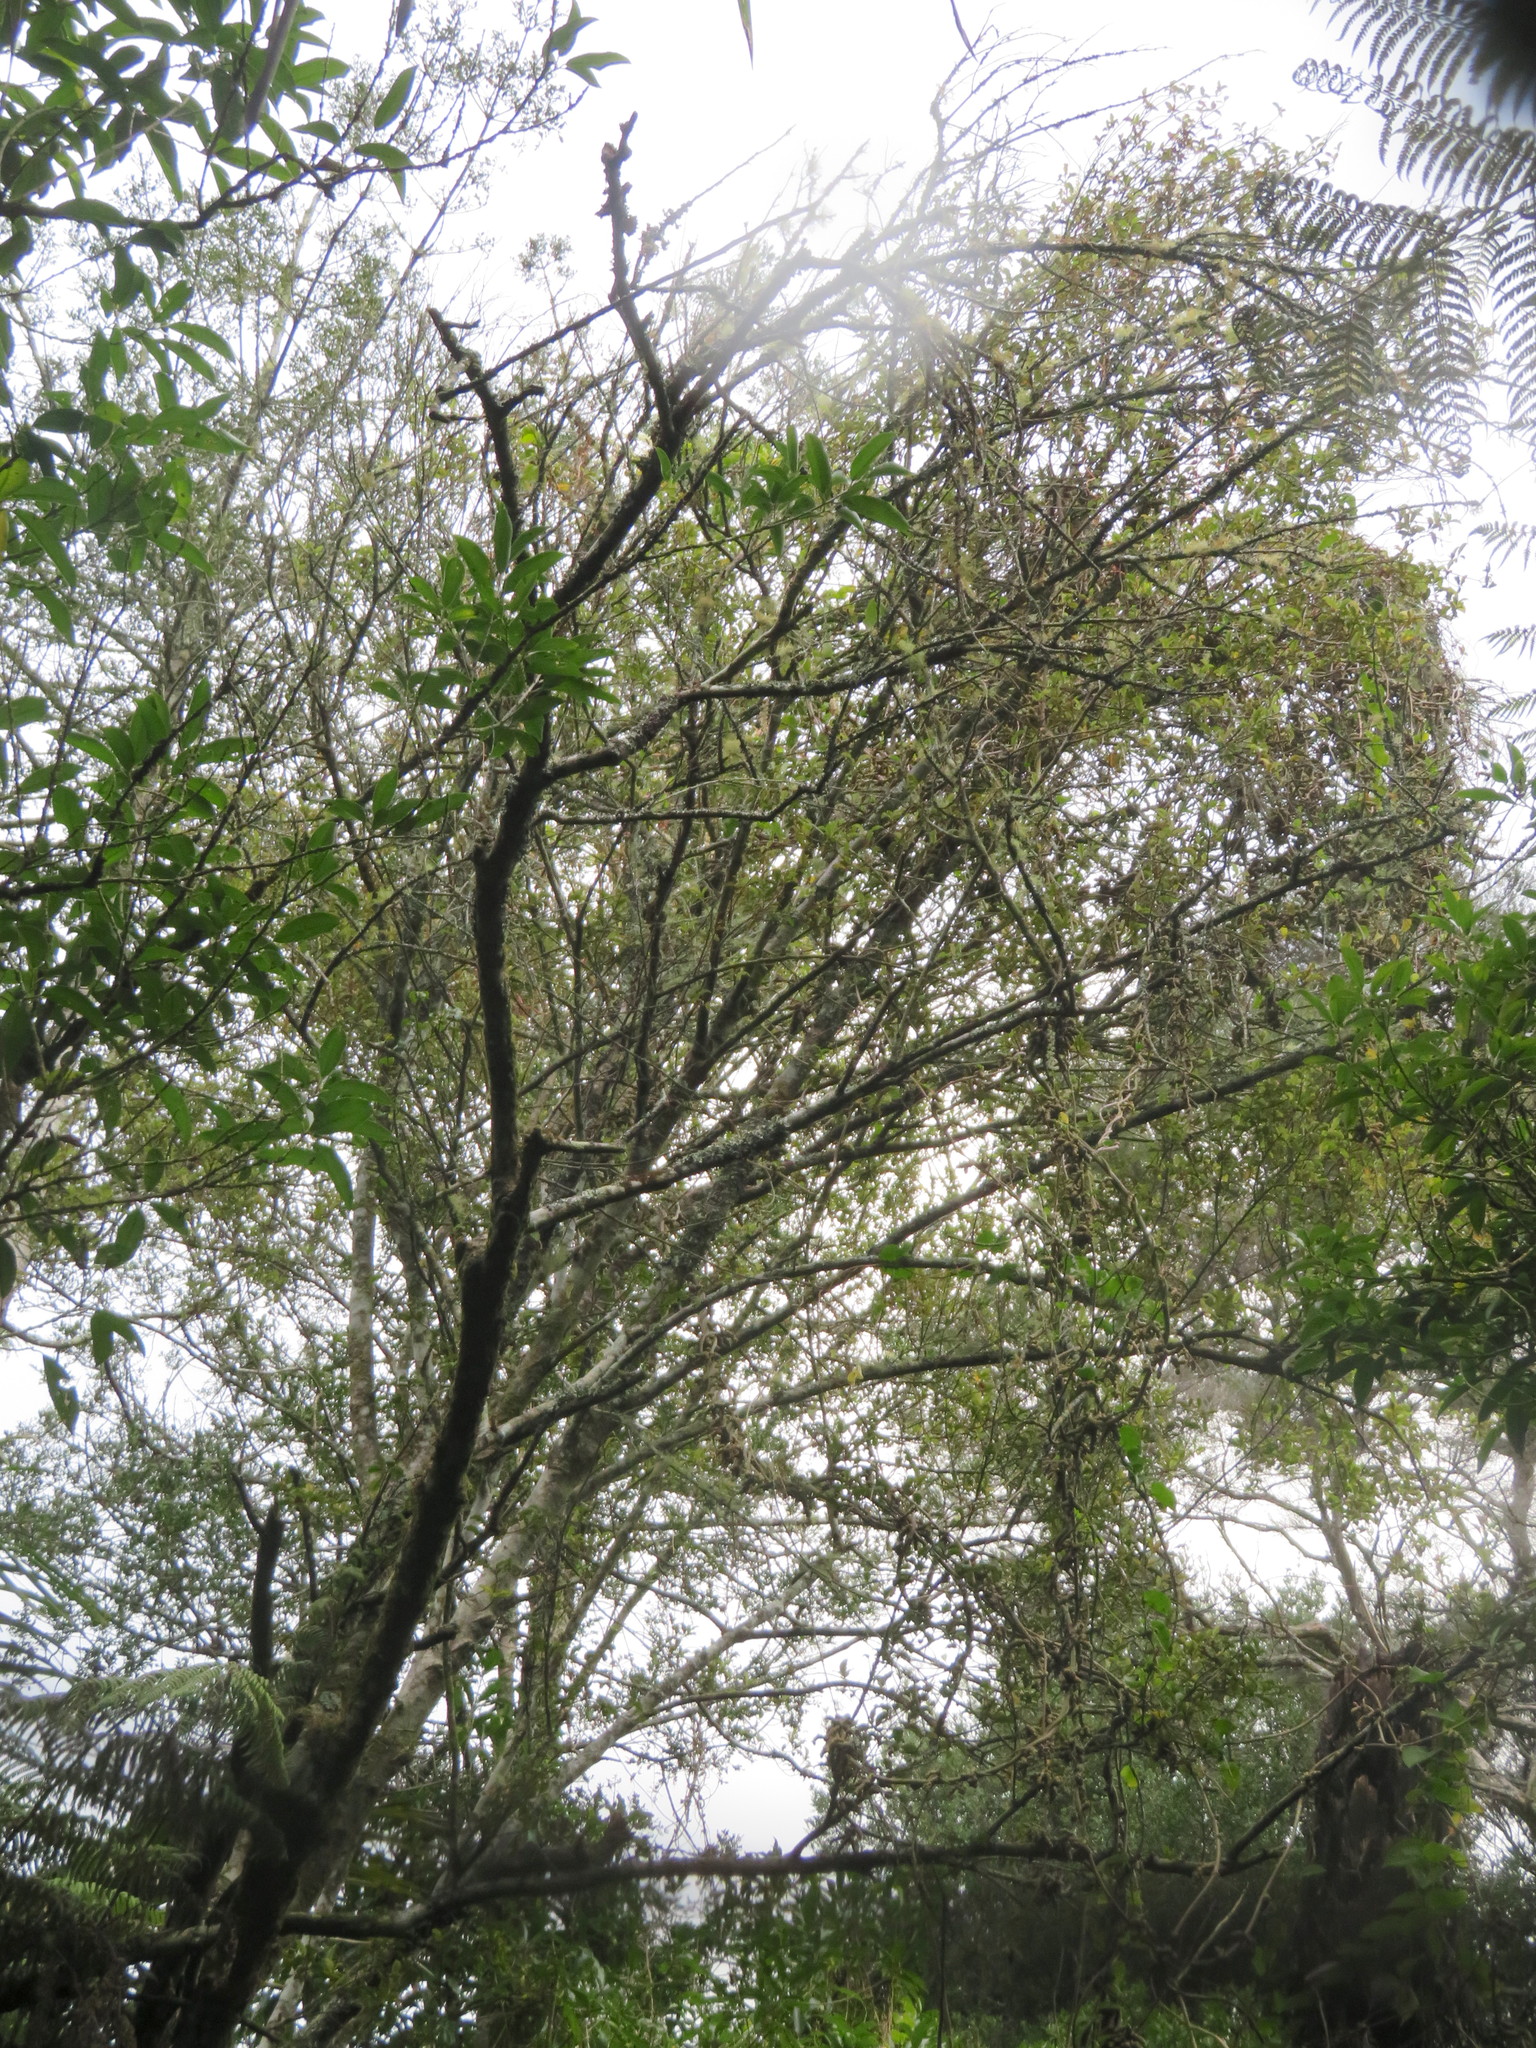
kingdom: Plantae
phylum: Tracheophyta
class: Magnoliopsida
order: Caryophyllales
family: Basellaceae
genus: Anredera
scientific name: Anredera cordifolia
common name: Heartleaf madeiravine
